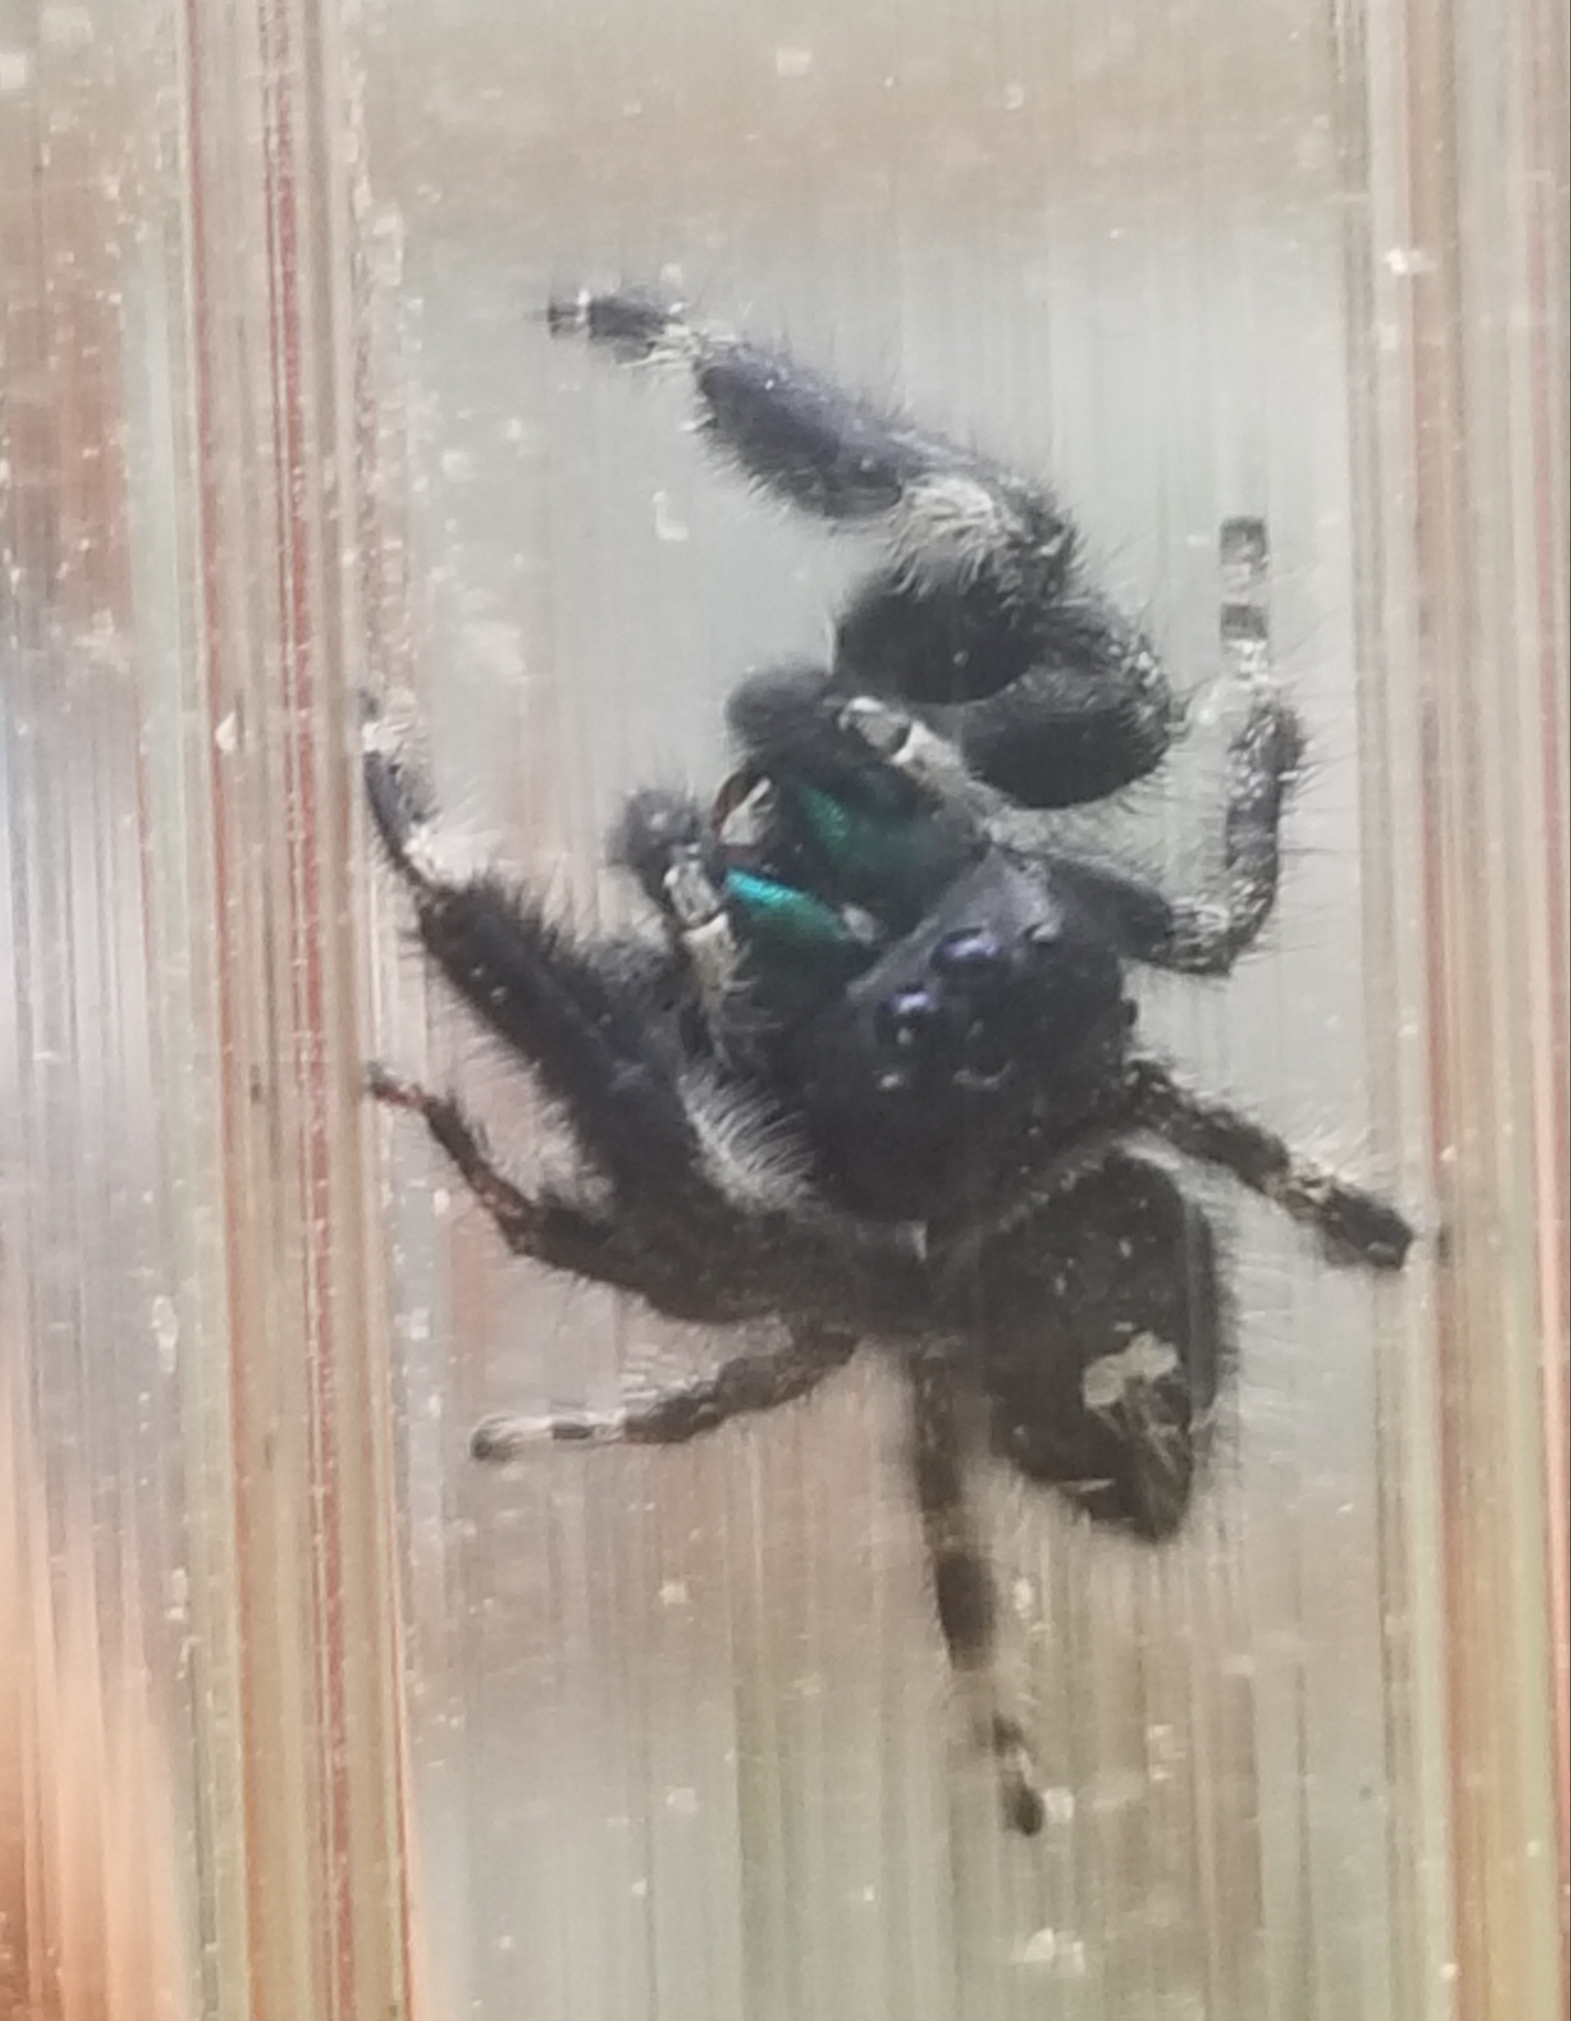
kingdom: Animalia
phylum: Arthropoda
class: Arachnida
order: Araneae
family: Salticidae
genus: Phidippus
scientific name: Phidippus audax
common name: Bold jumper
